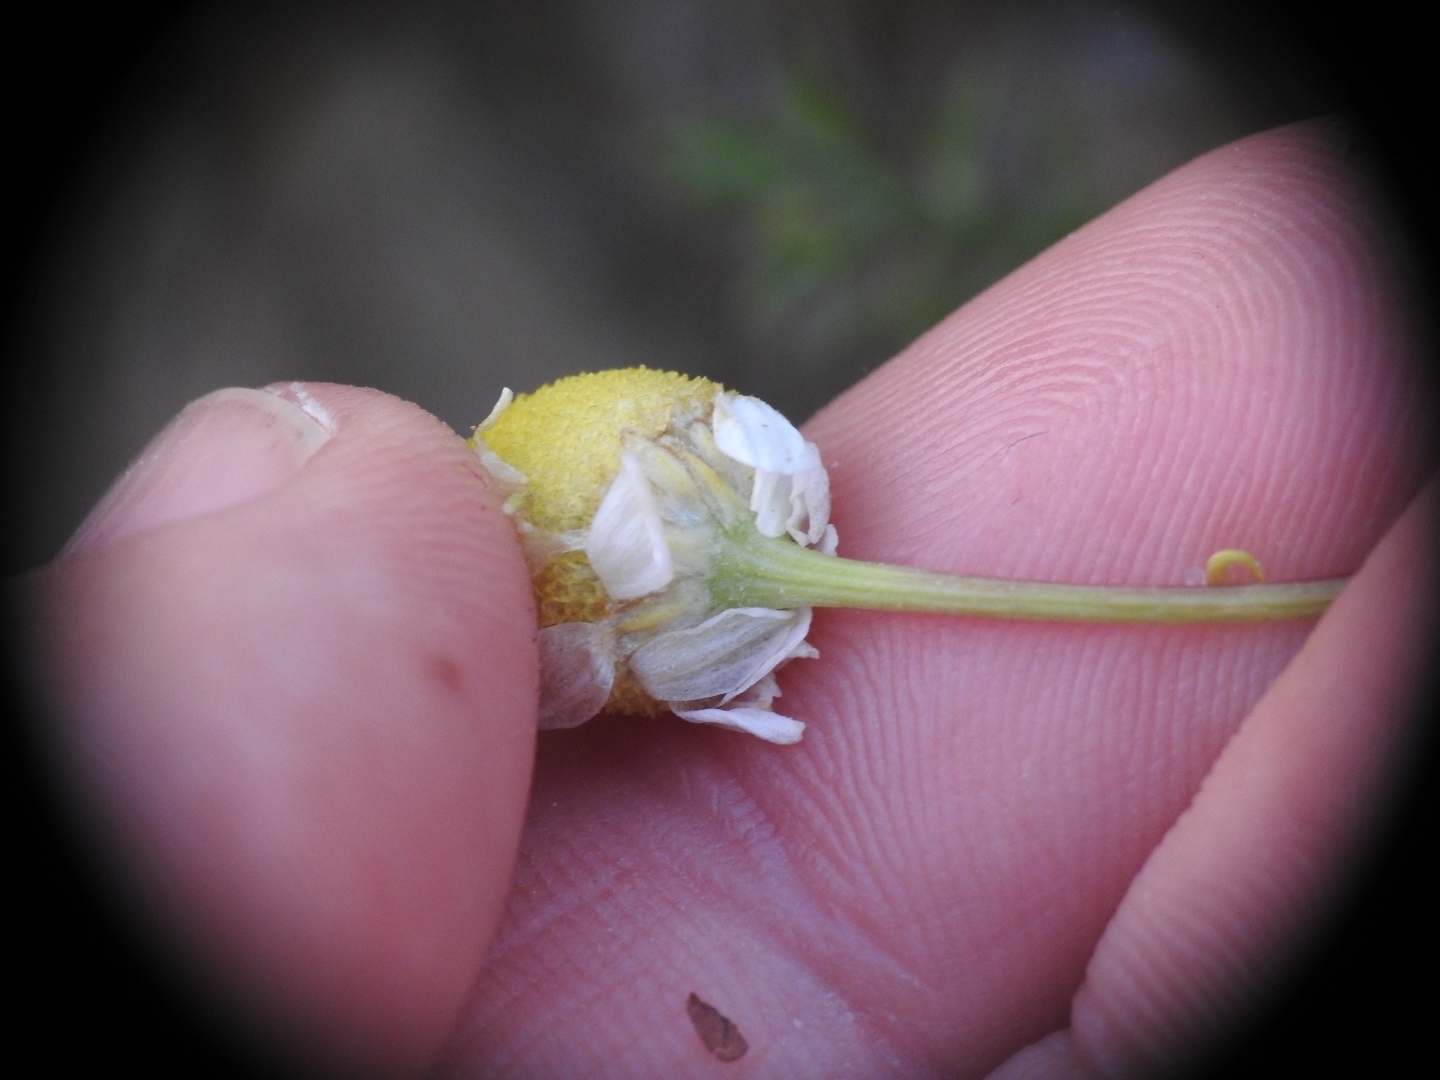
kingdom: Plantae
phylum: Tracheophyta
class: Magnoliopsida
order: Asterales
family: Asteraceae
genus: Matricaria
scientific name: Matricaria chamomilla
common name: Scented mayweed
